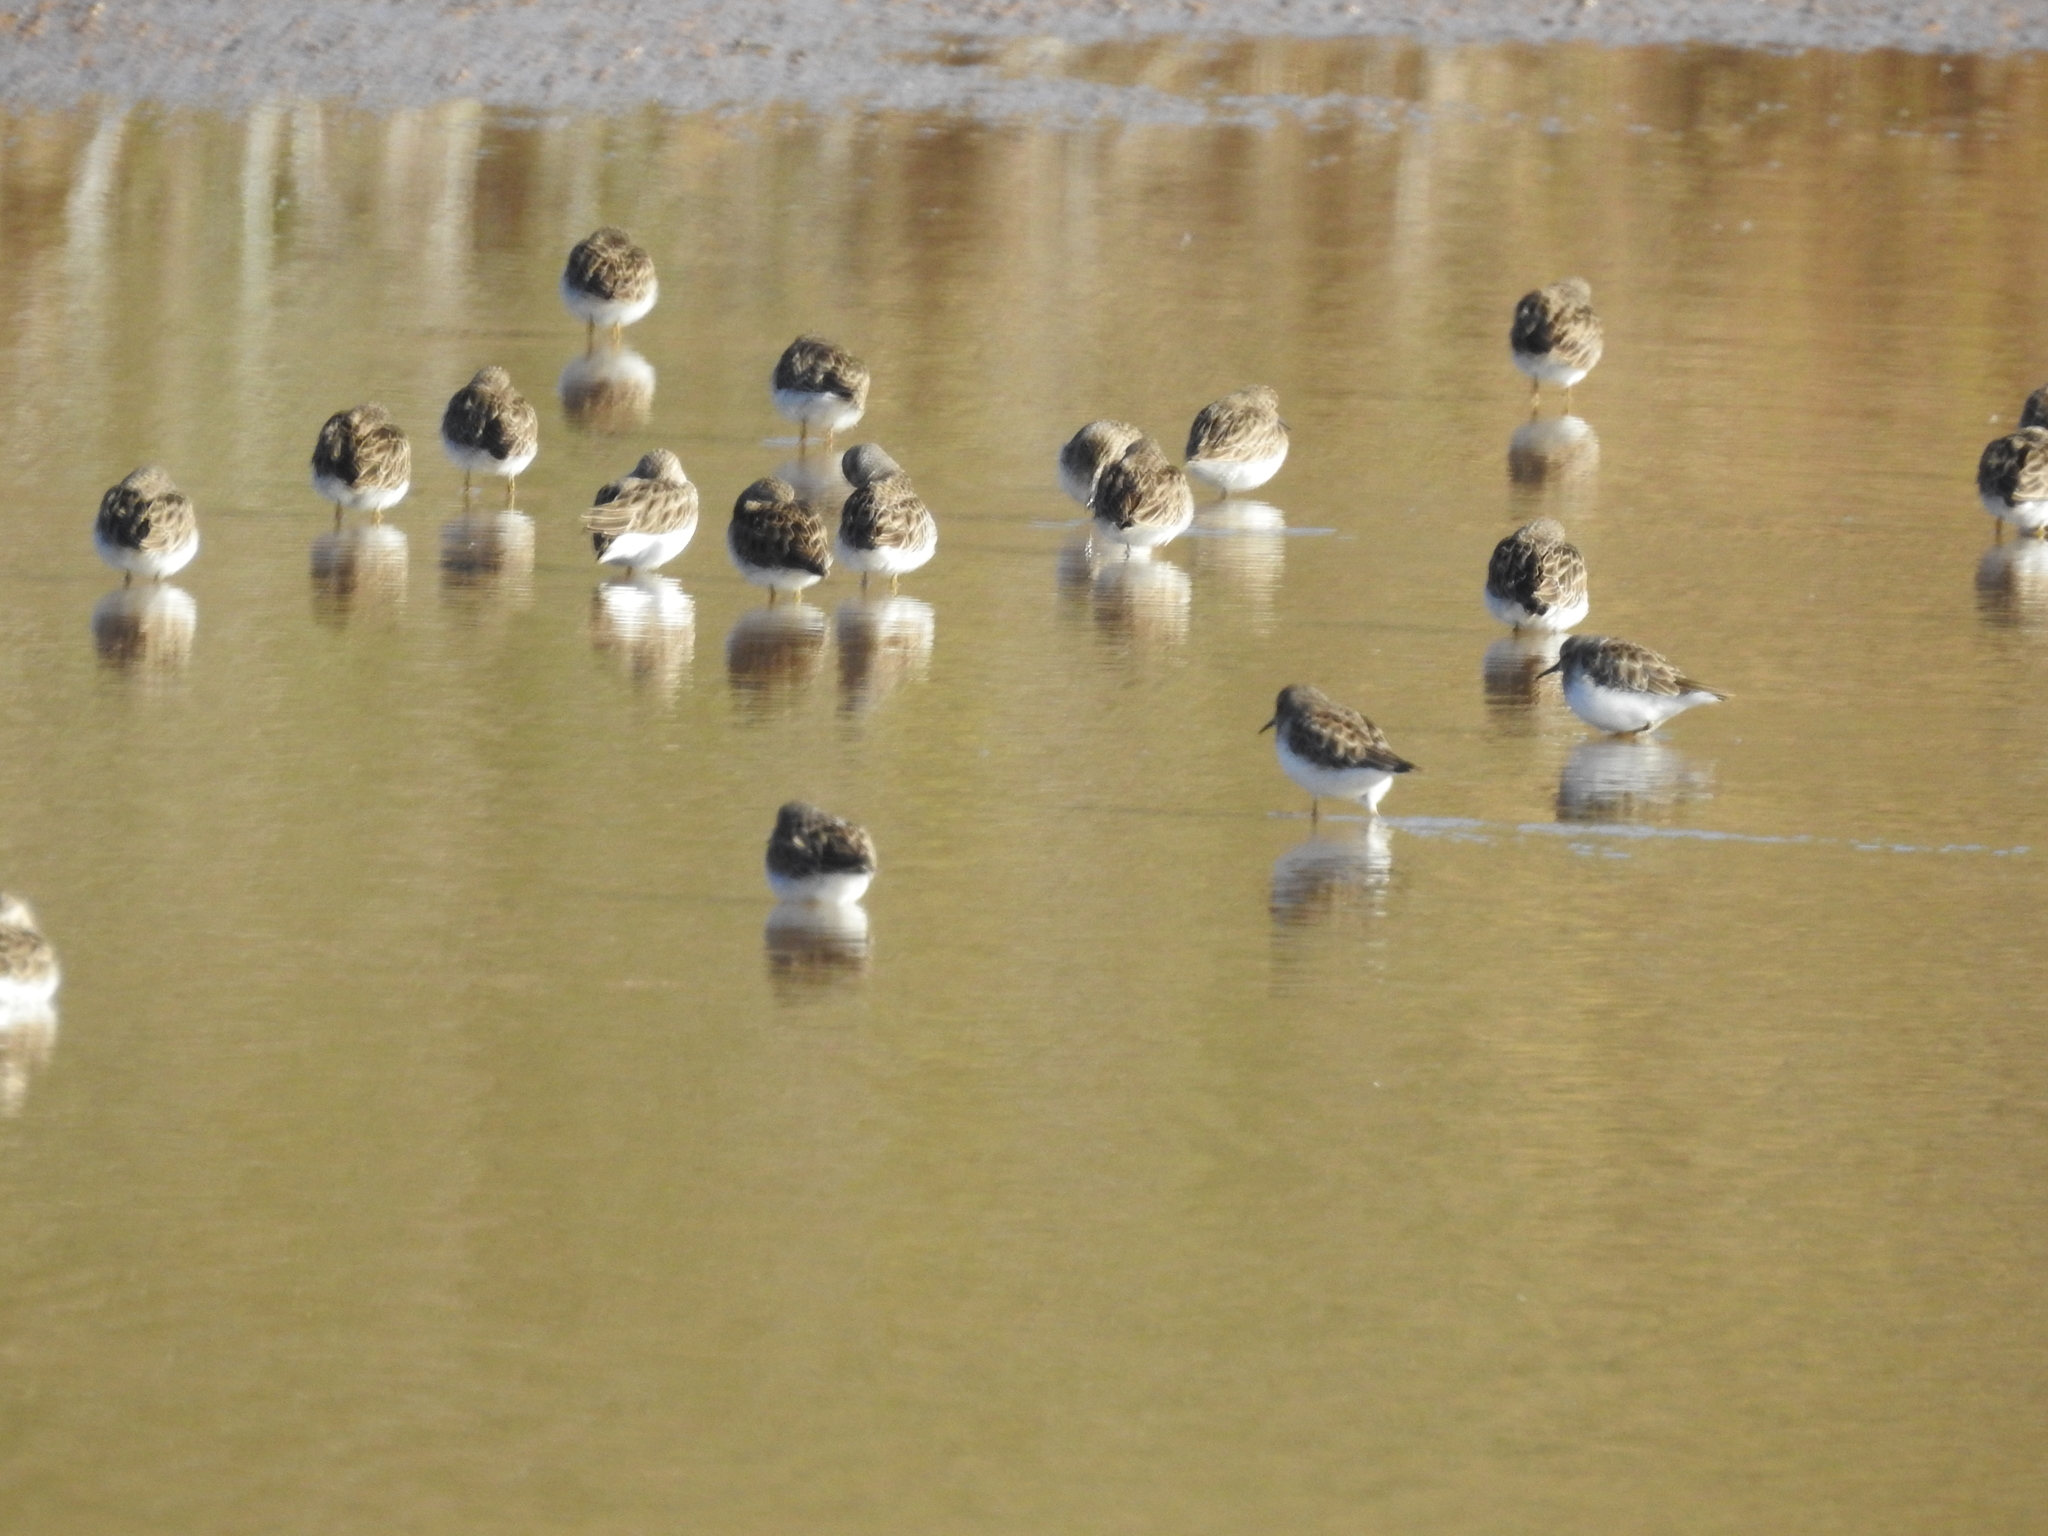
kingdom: Animalia
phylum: Chordata
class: Aves
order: Charadriiformes
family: Scolopacidae
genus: Calidris
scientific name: Calidris minutilla
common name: Least sandpiper
